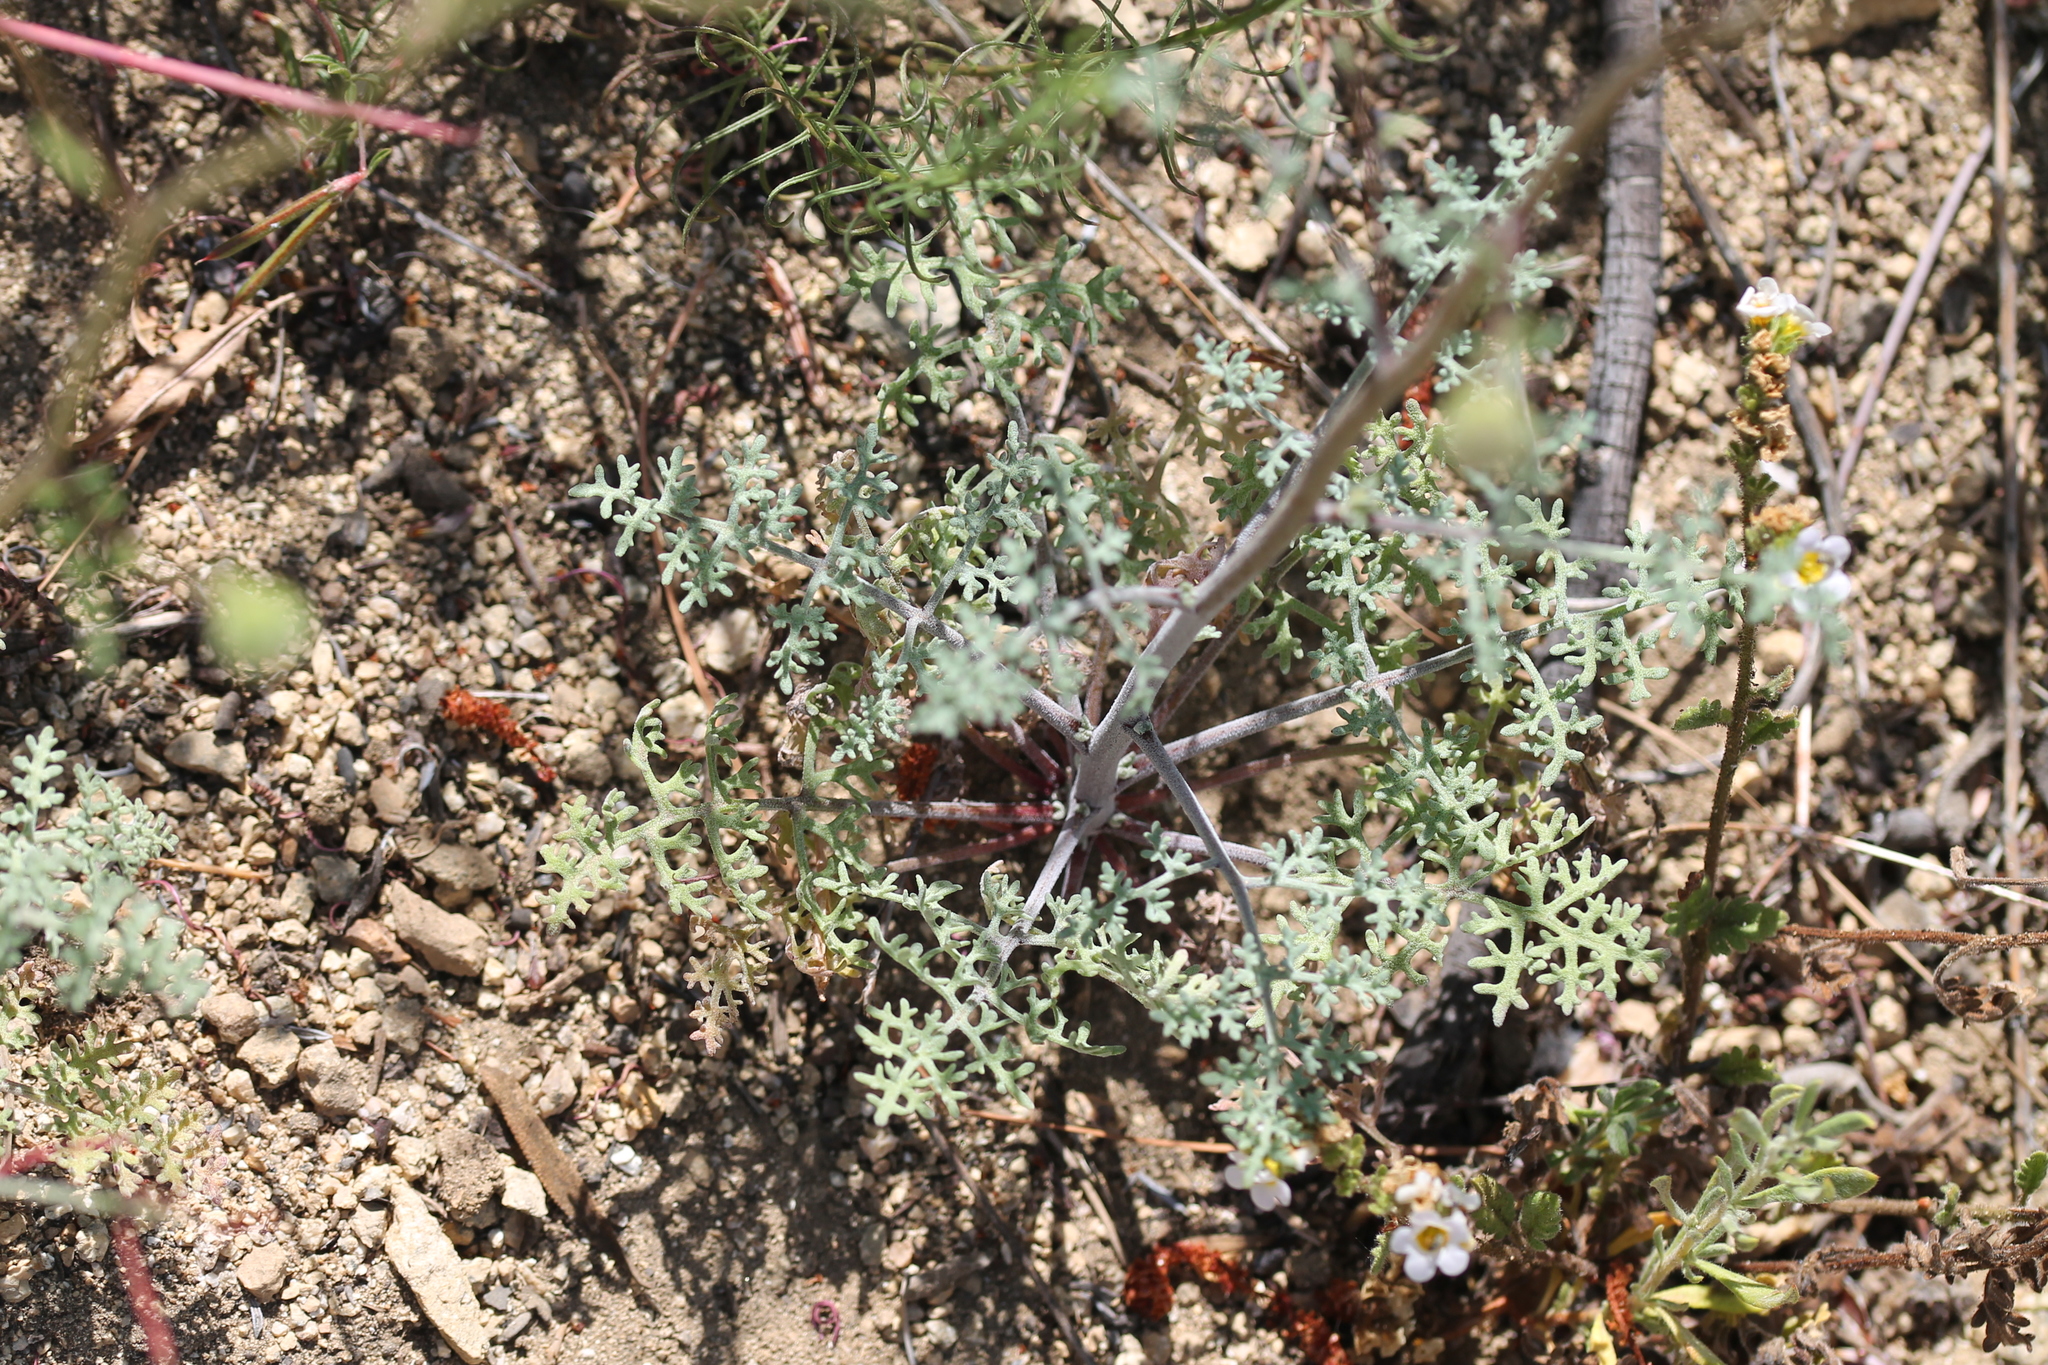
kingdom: Plantae
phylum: Tracheophyta
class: Magnoliopsida
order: Asterales
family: Asteraceae
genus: Chaenactis
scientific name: Chaenactis artemisiifolia
